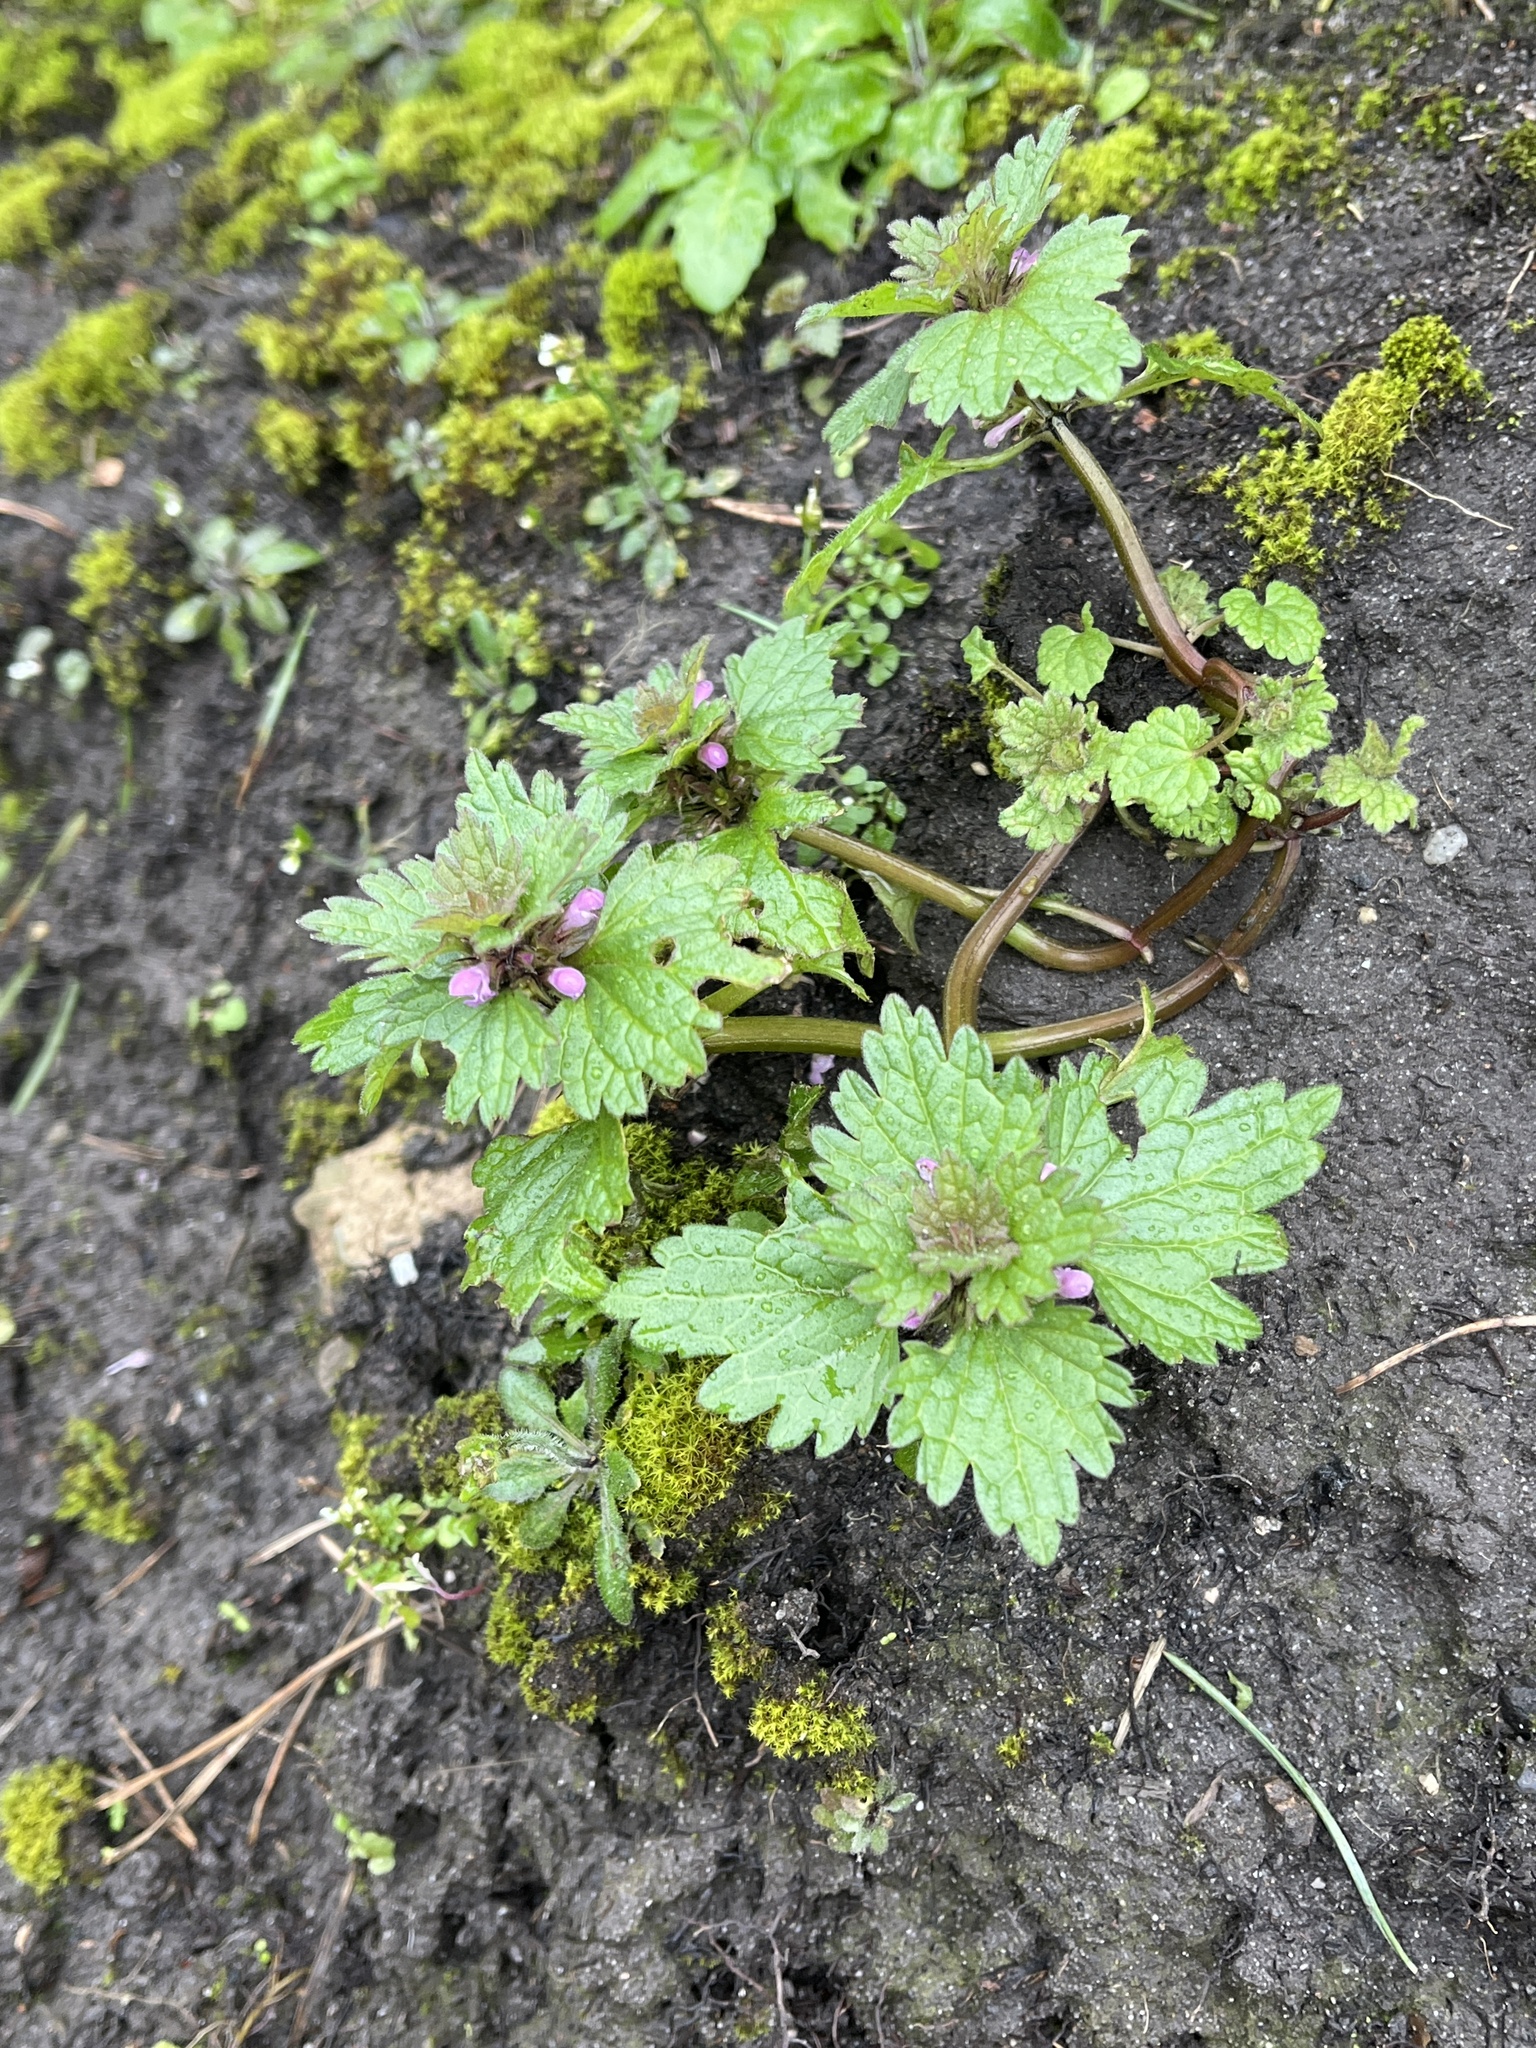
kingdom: Plantae
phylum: Tracheophyta
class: Magnoliopsida
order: Lamiales
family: Lamiaceae
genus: Lamium
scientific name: Lamium hybridum
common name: Cut-leaved dead-nettle
